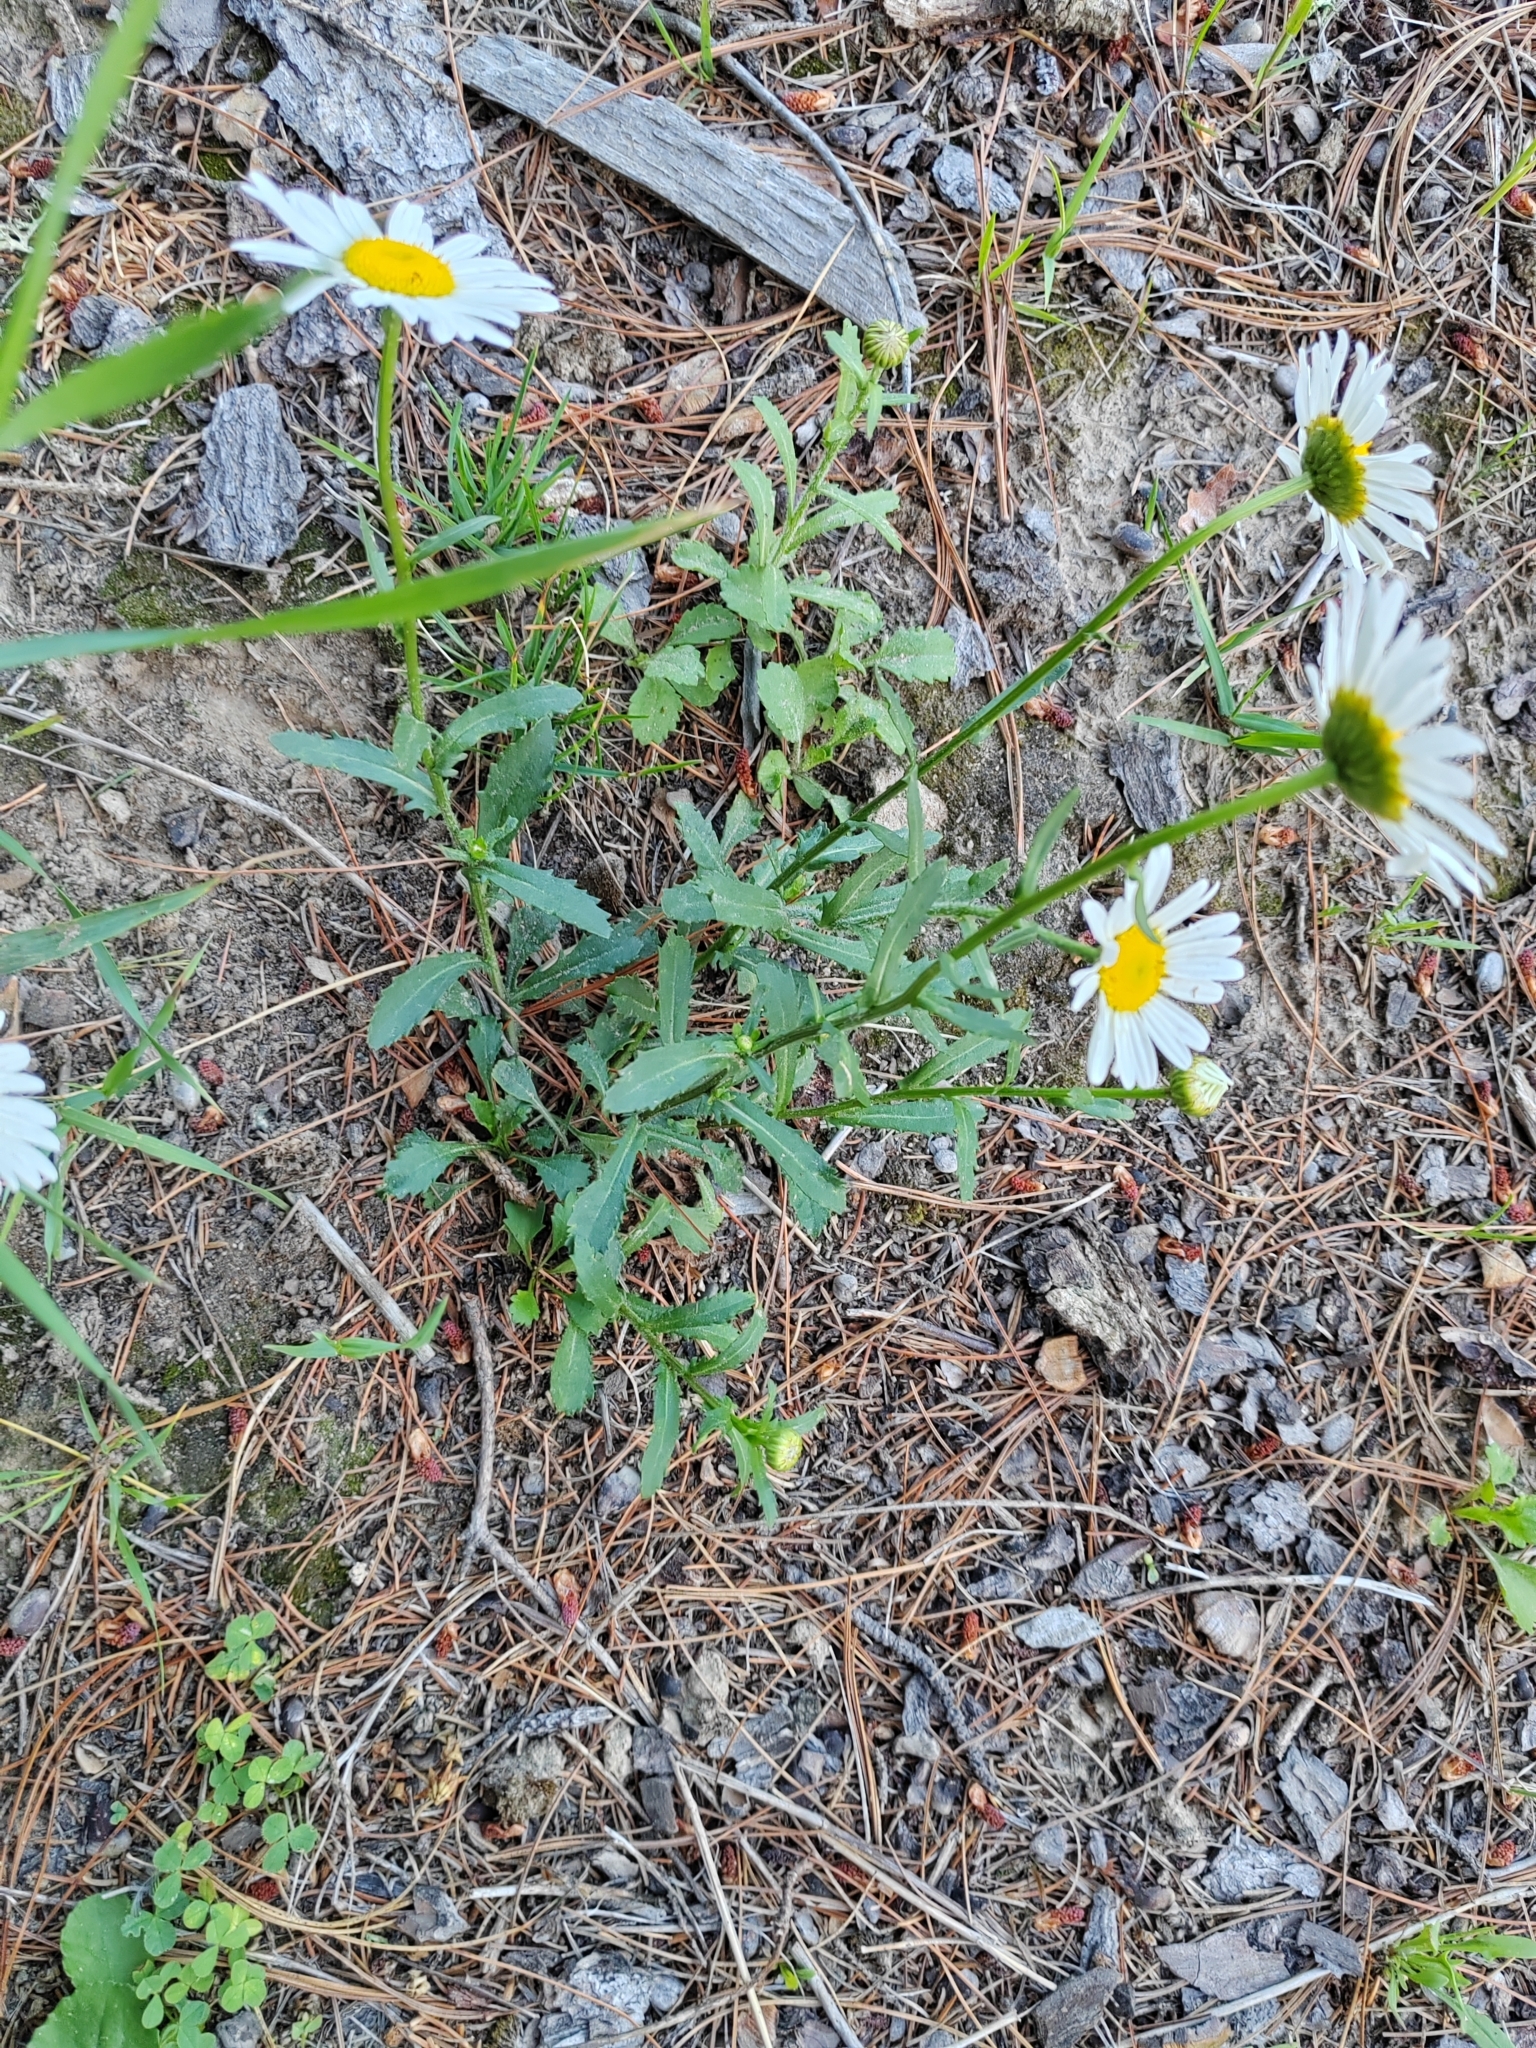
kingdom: Plantae
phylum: Tracheophyta
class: Magnoliopsida
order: Asterales
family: Asteraceae
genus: Leucanthemum
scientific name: Leucanthemum ircutianum
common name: Daisy
